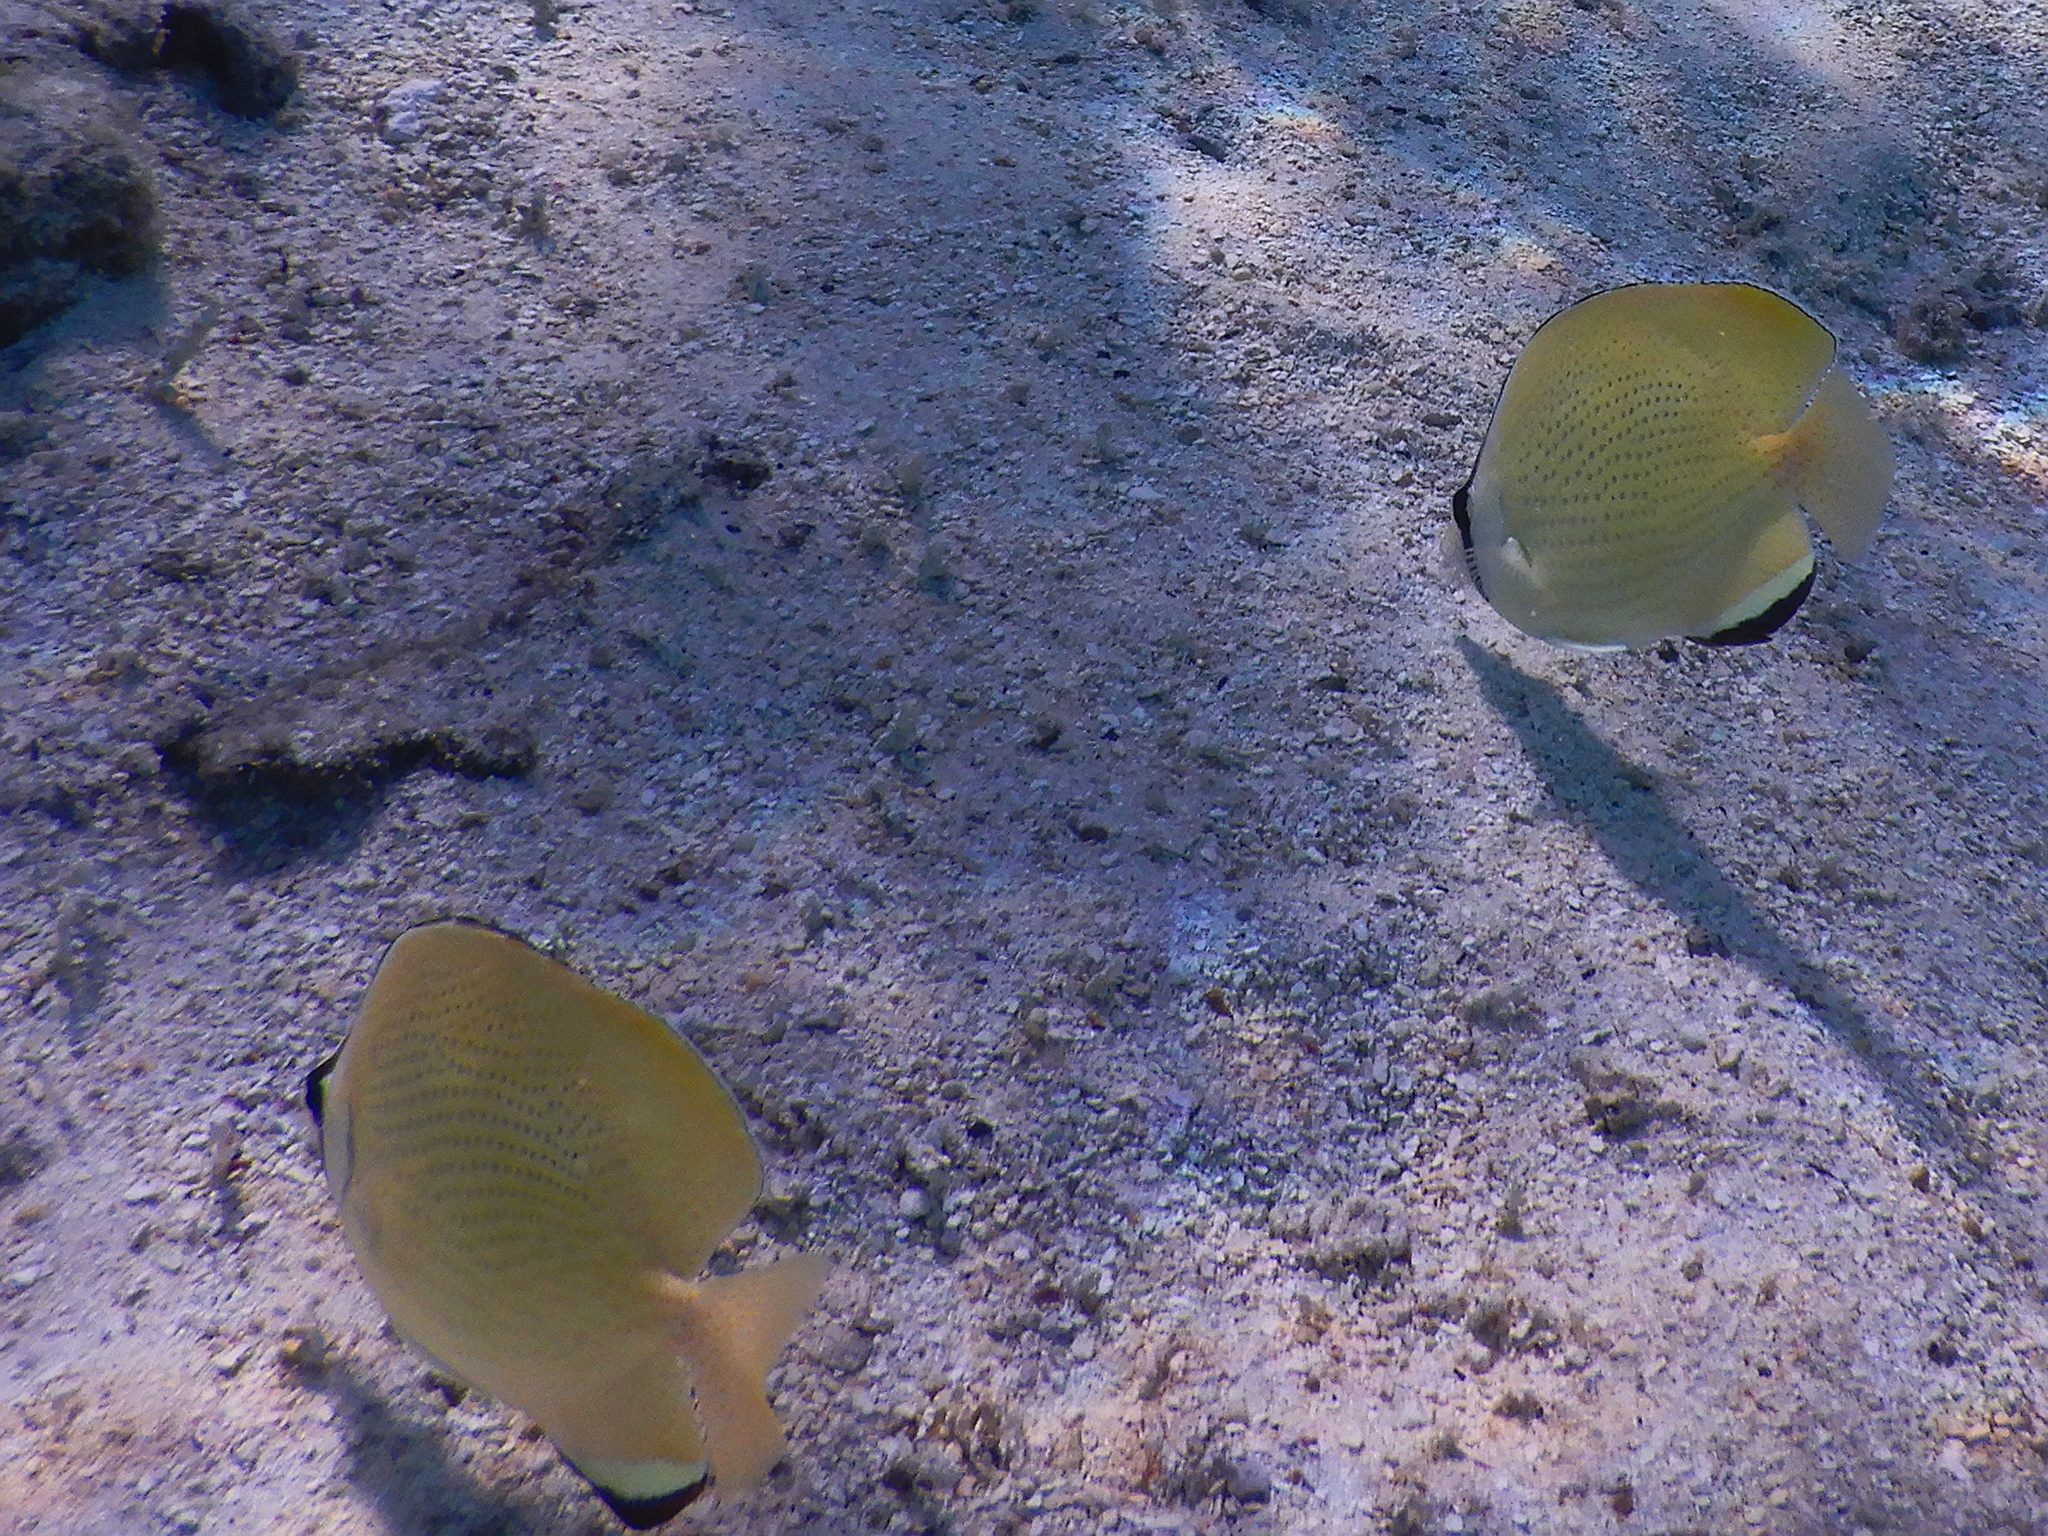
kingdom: Animalia
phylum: Chordata
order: Perciformes
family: Chaetodontidae
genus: Chaetodon
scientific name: Chaetodon citrinellus
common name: Speckled butterflyfish
